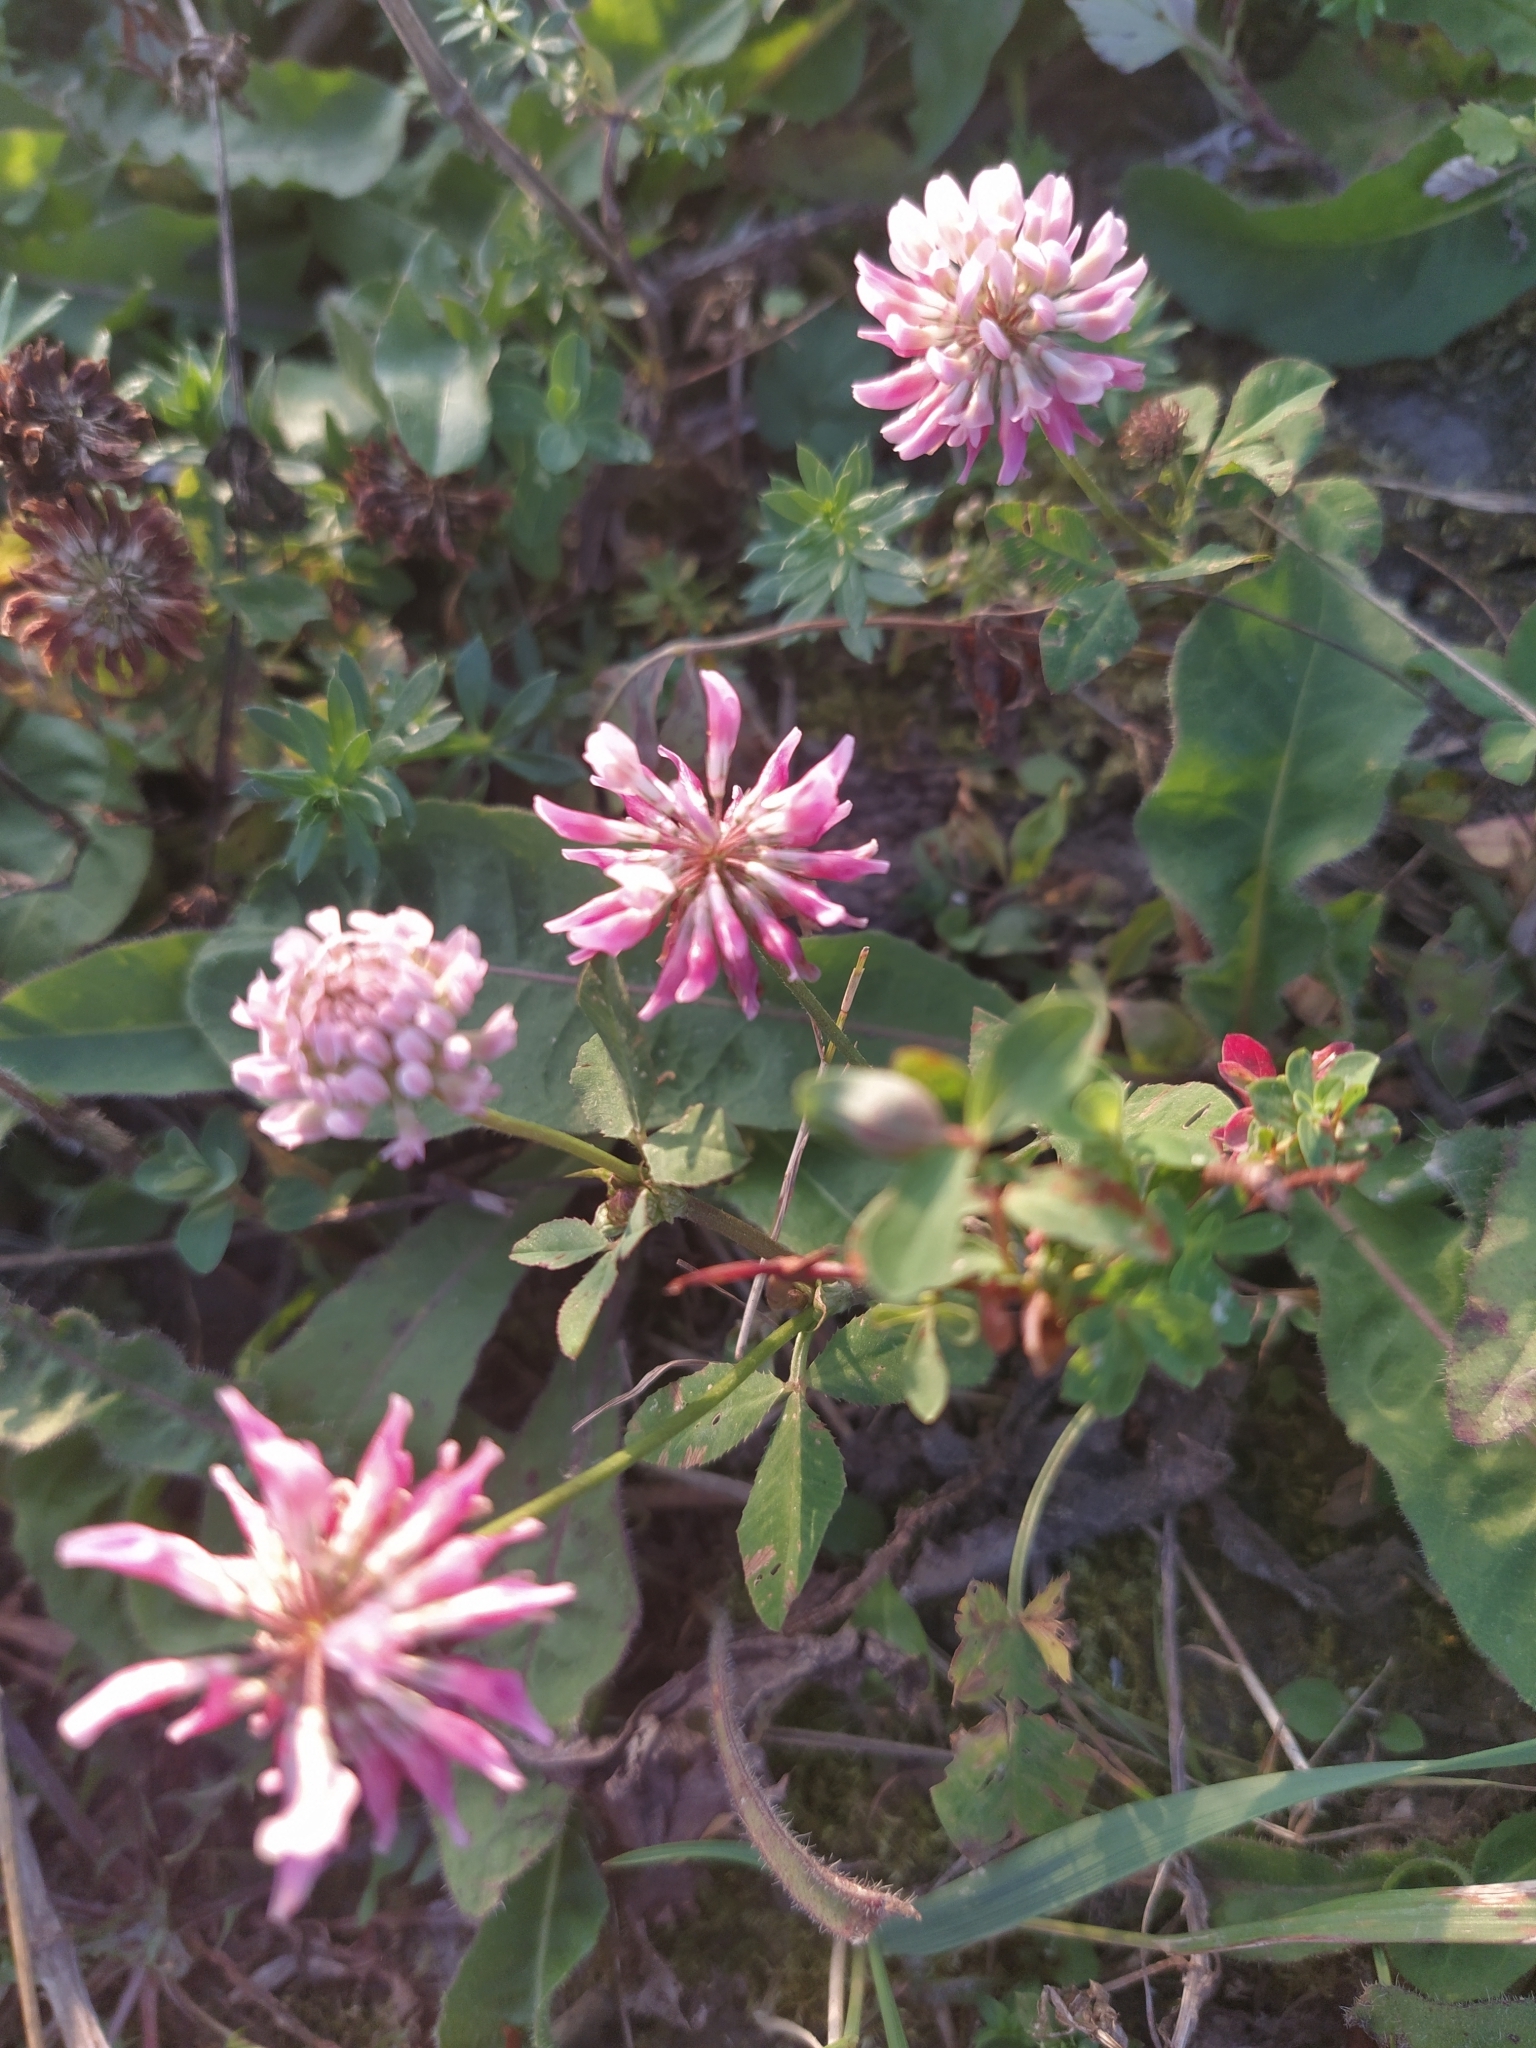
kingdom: Plantae
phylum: Tracheophyta
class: Magnoliopsida
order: Fabales
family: Fabaceae
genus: Trifolium
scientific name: Trifolium hybridum
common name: Alsike clover
